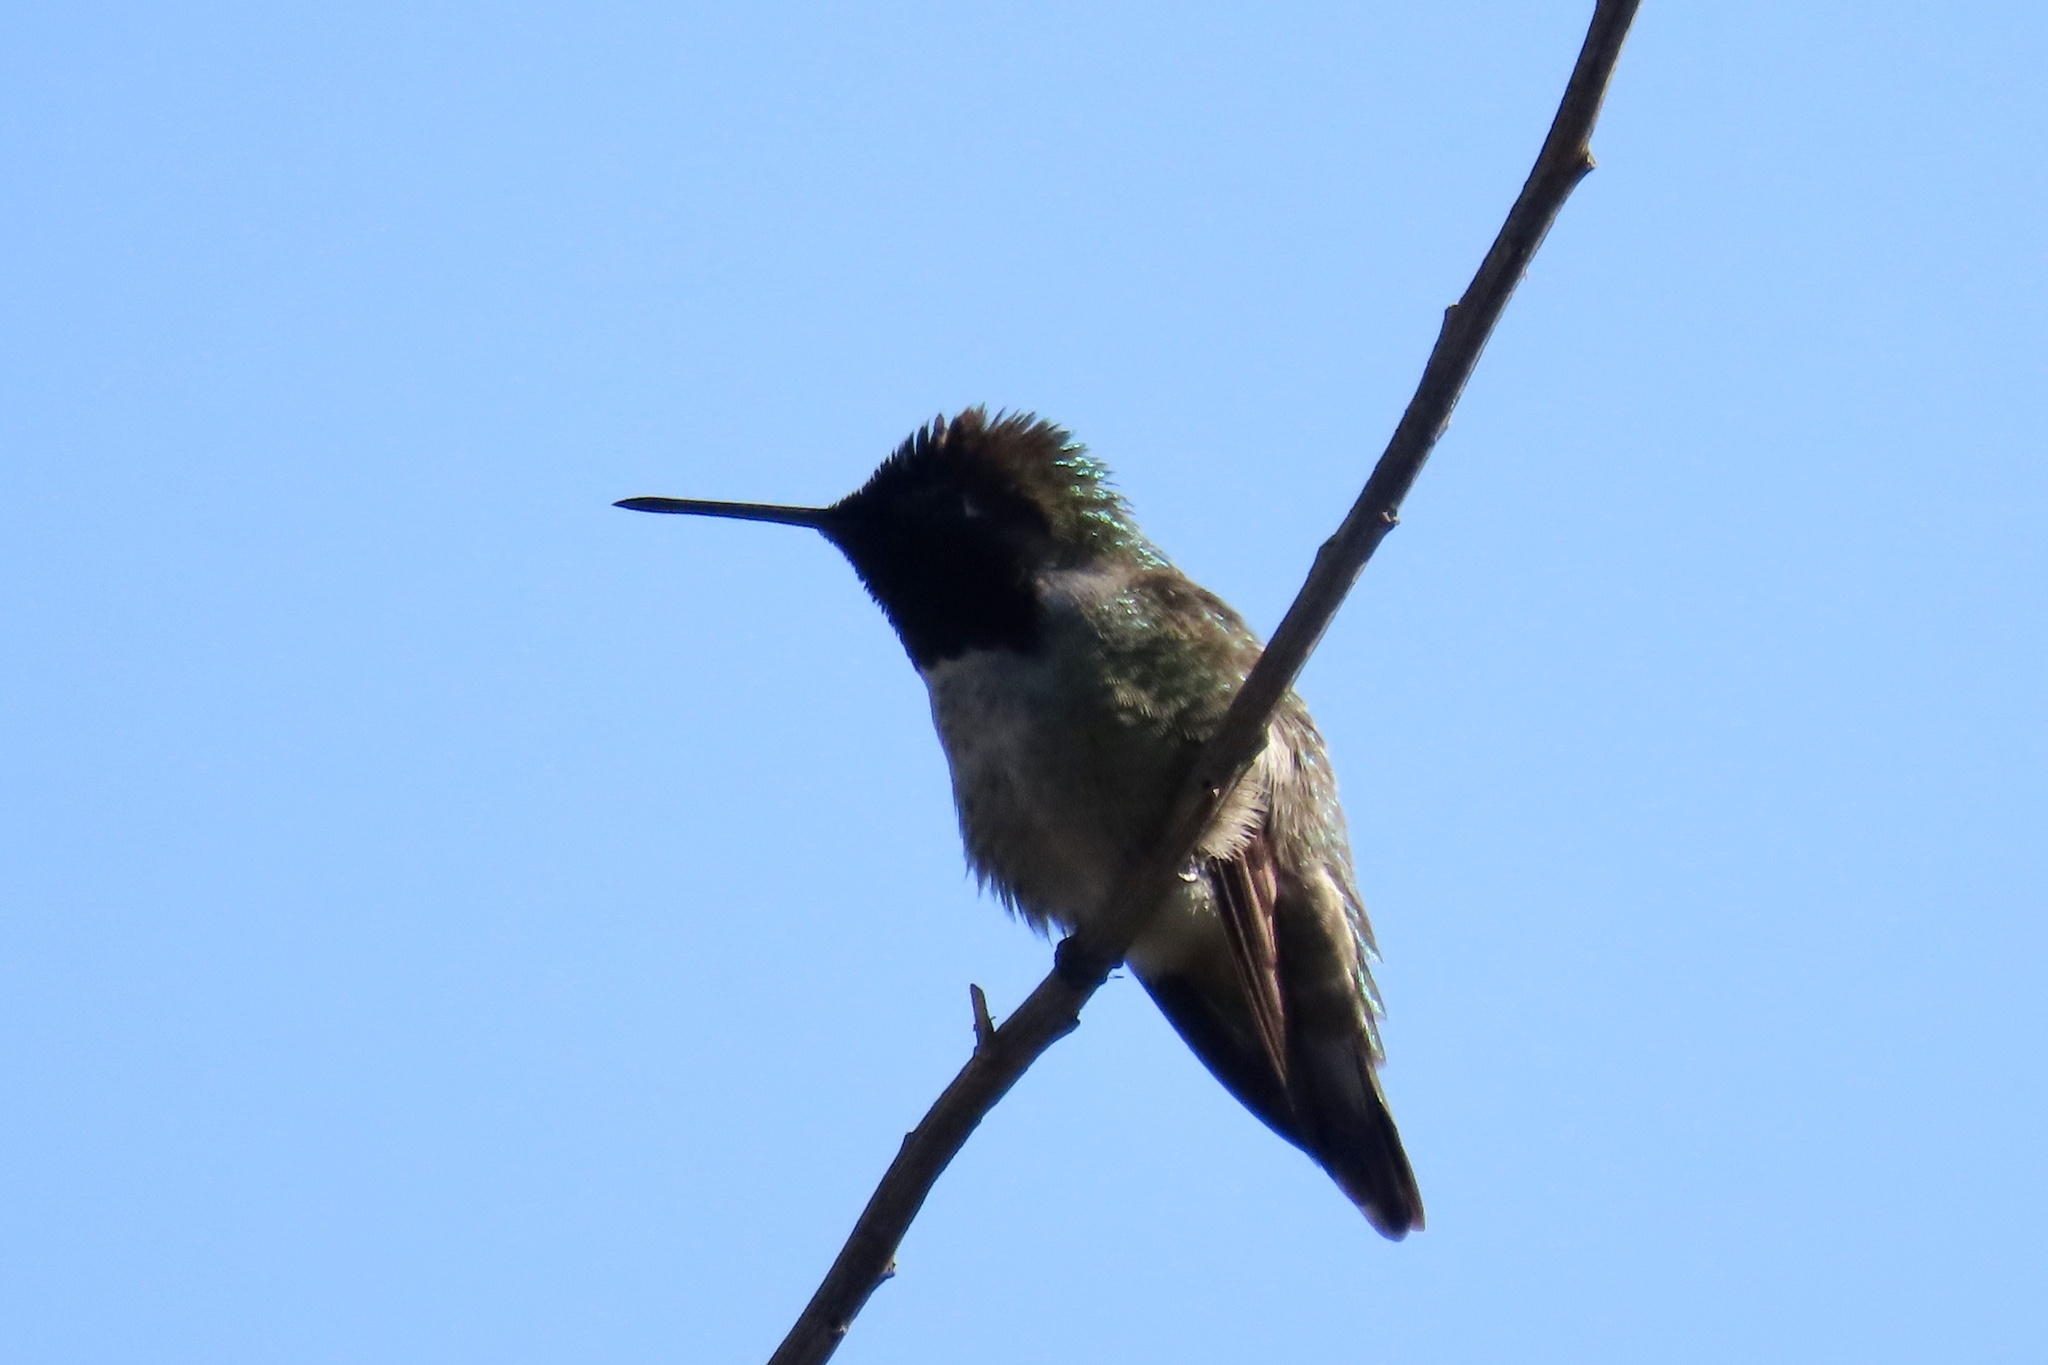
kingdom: Animalia
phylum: Chordata
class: Aves
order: Apodiformes
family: Trochilidae
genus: Calypte
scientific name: Calypte anna
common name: Anna's hummingbird
